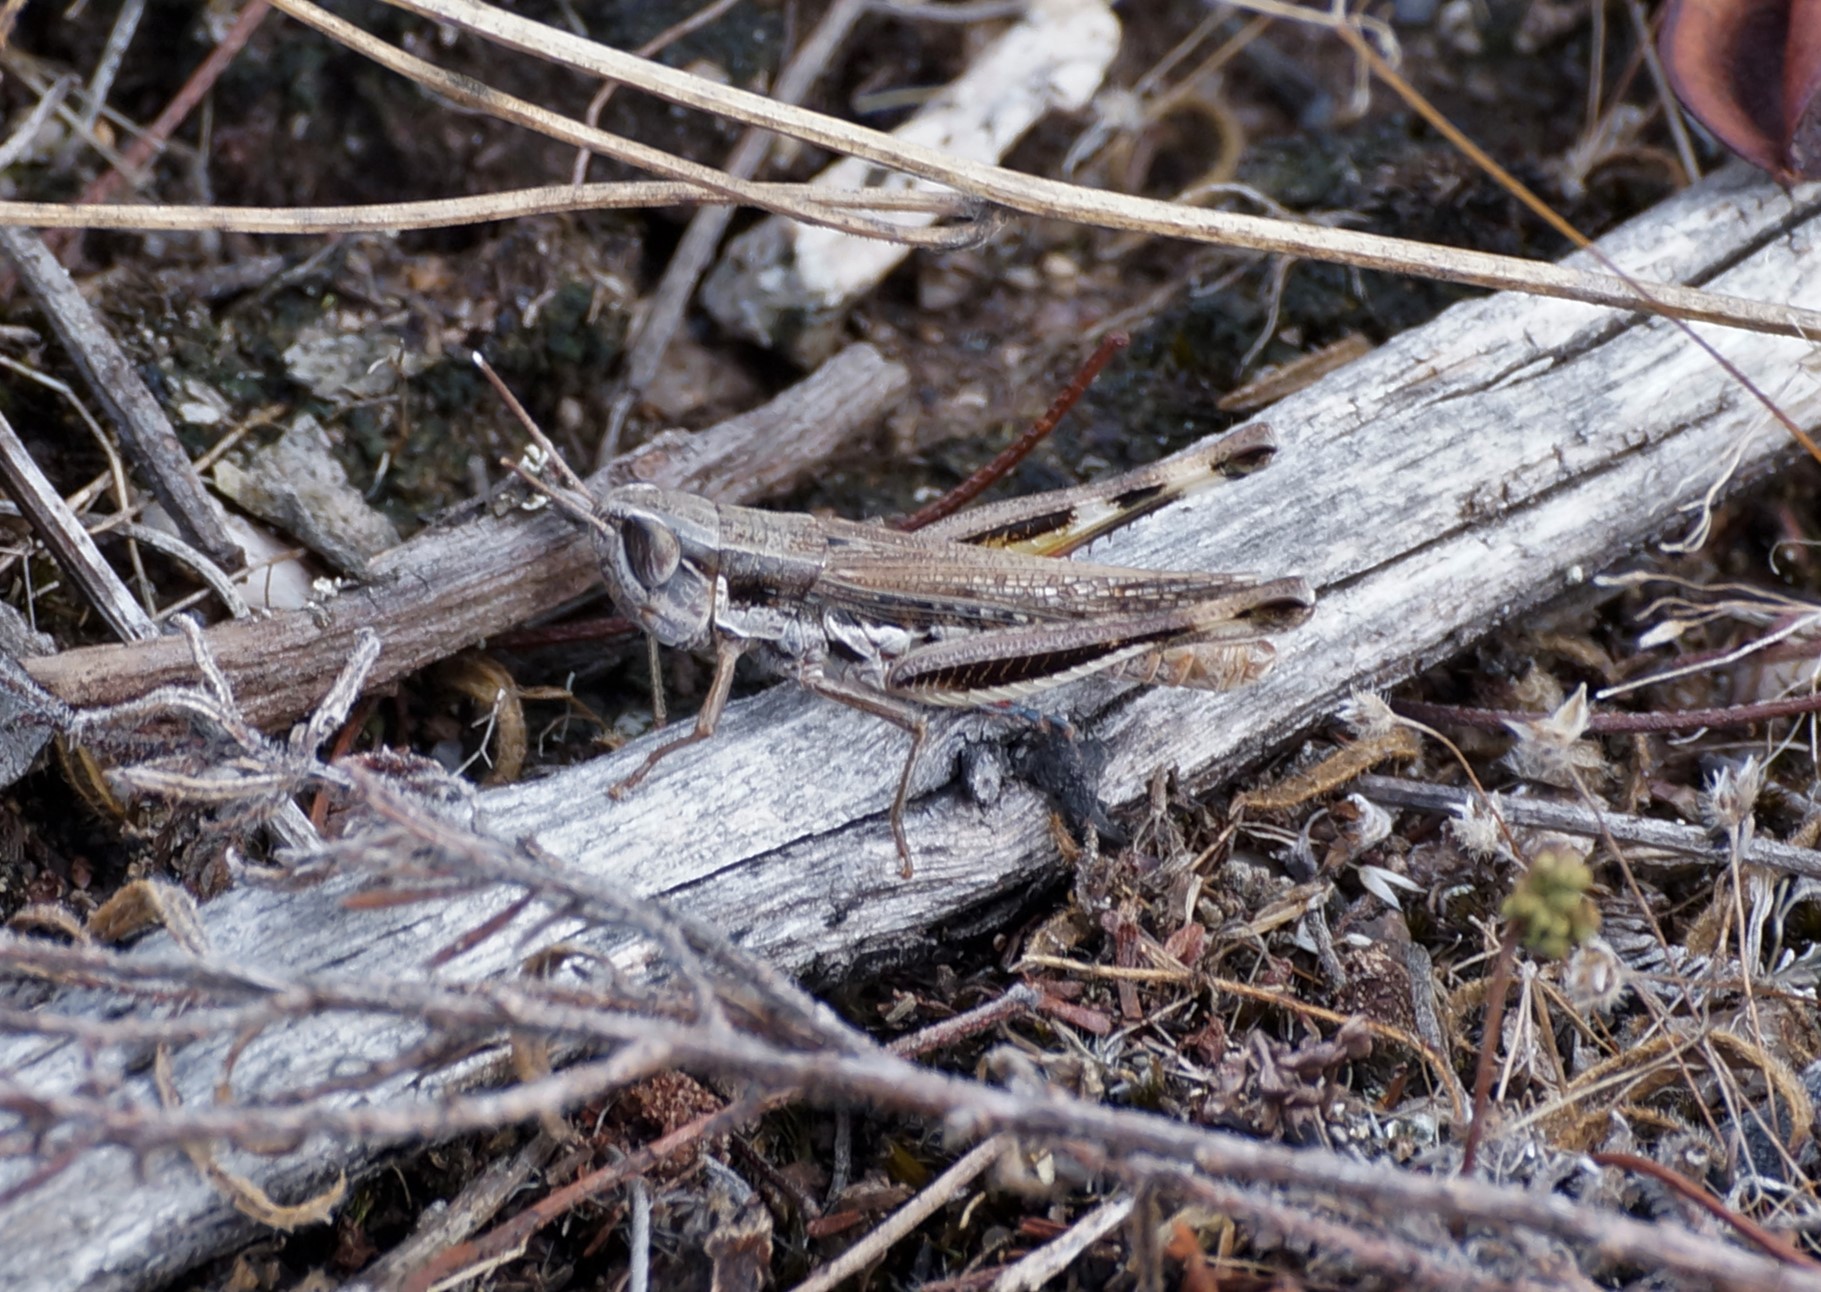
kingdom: Animalia
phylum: Arthropoda
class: Insecta
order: Orthoptera
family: Acrididae
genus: Macrotona
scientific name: Macrotona securiformis
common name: Inland macrotona
